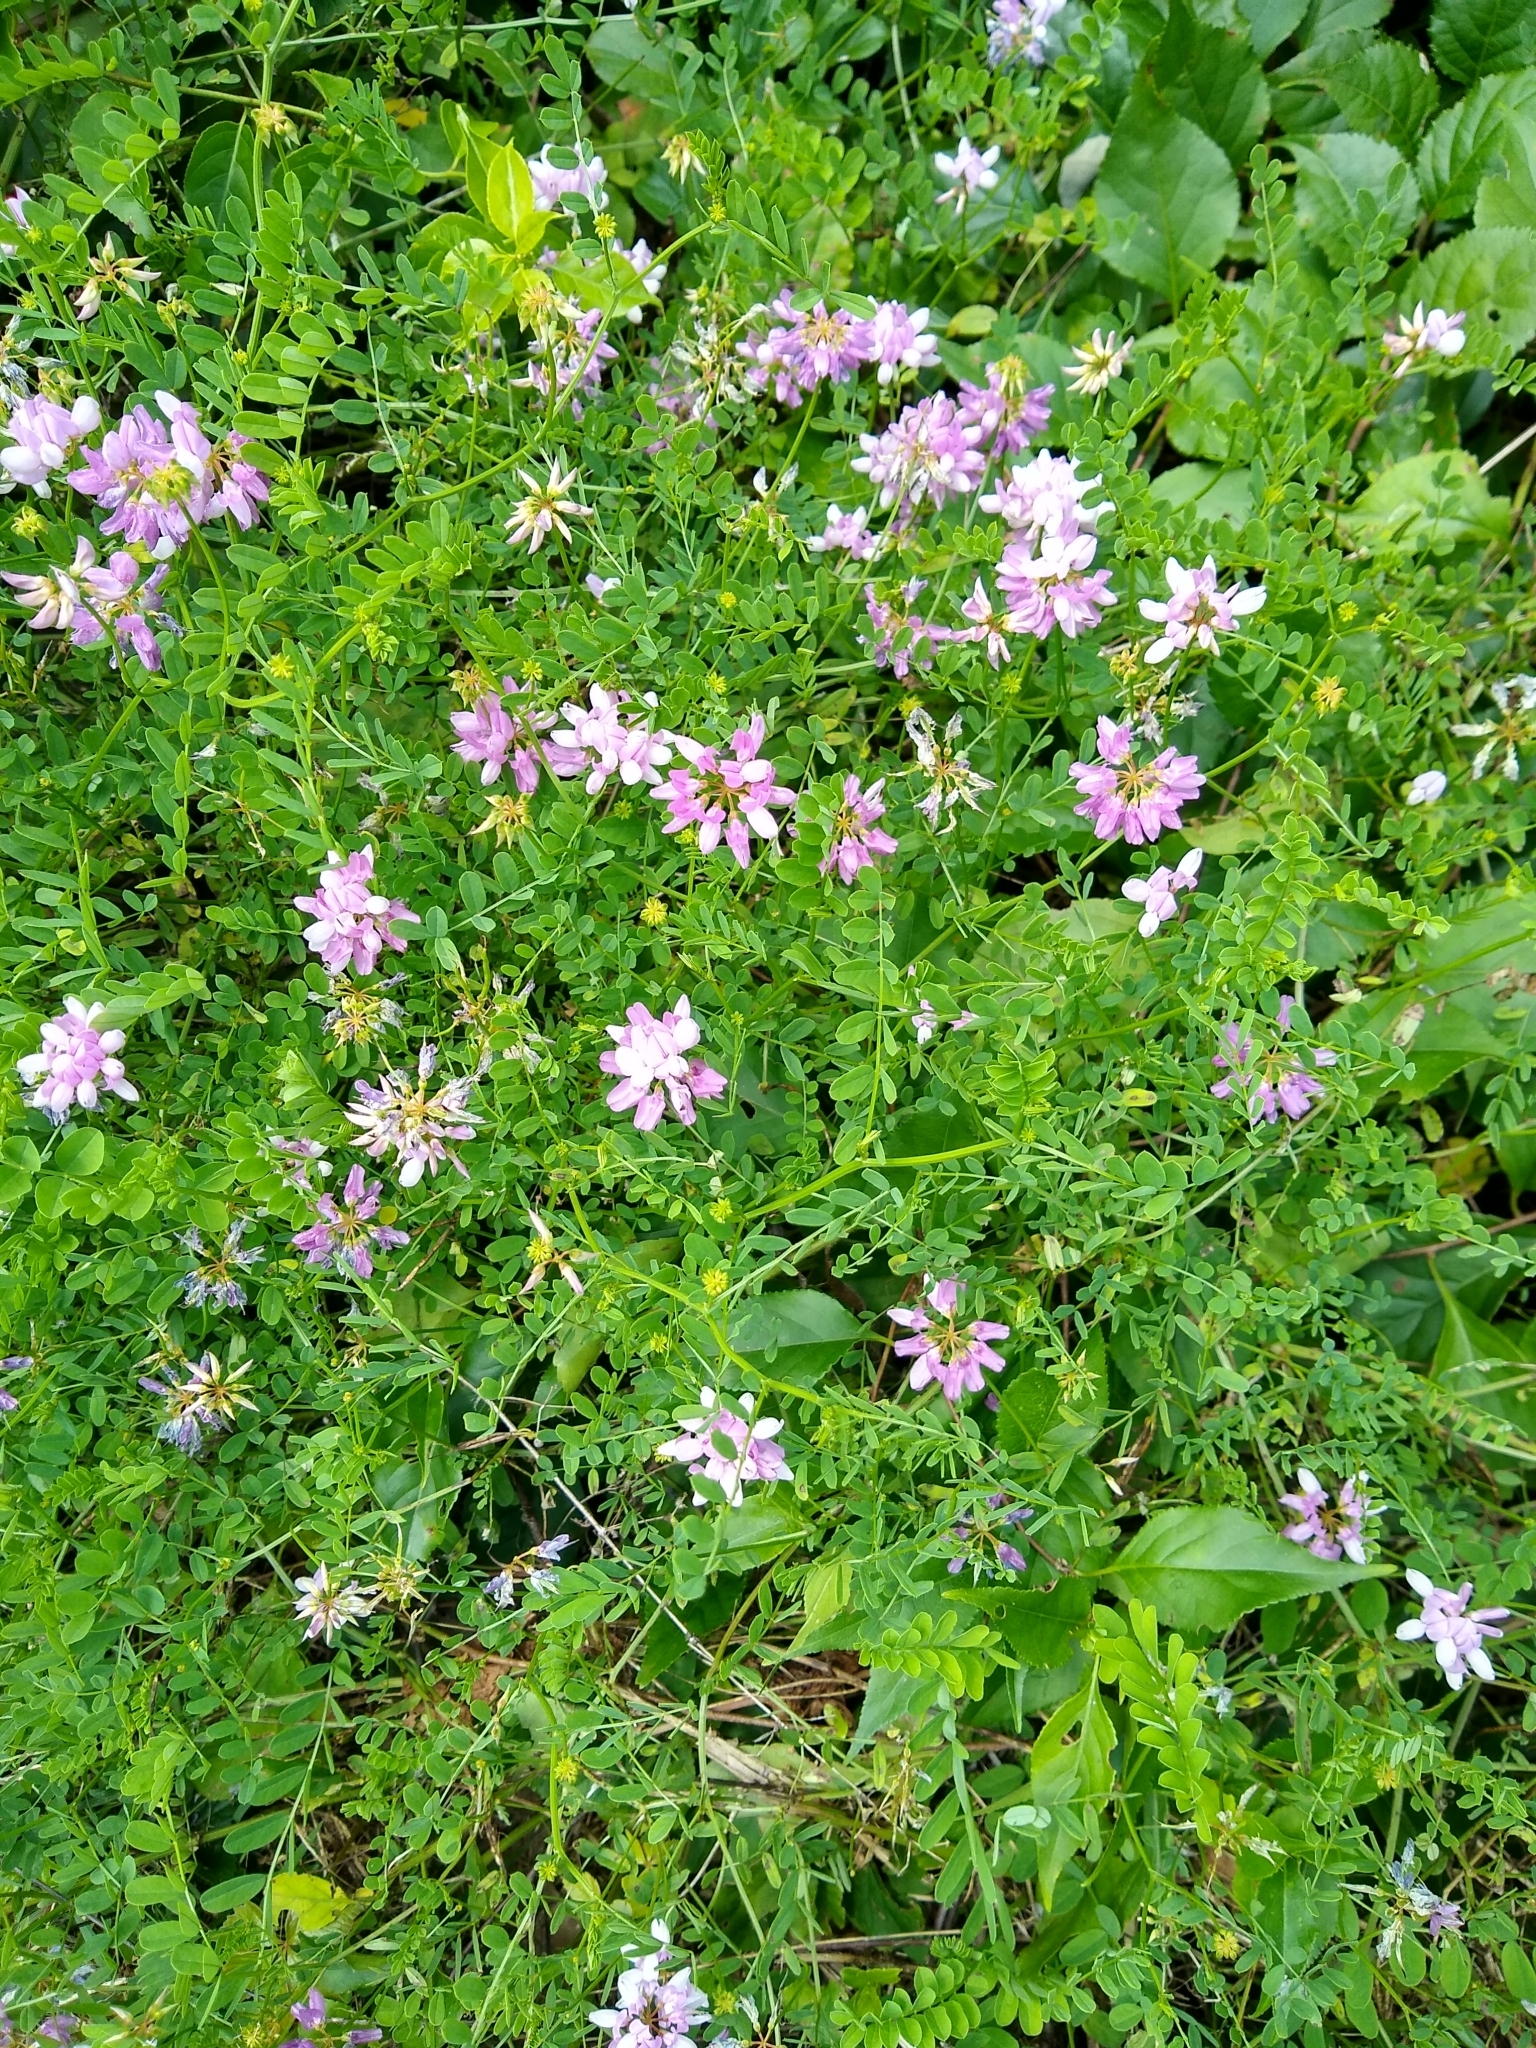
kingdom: Plantae
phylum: Tracheophyta
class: Magnoliopsida
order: Fabales
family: Fabaceae
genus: Coronilla
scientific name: Coronilla varia
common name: Crownvetch
